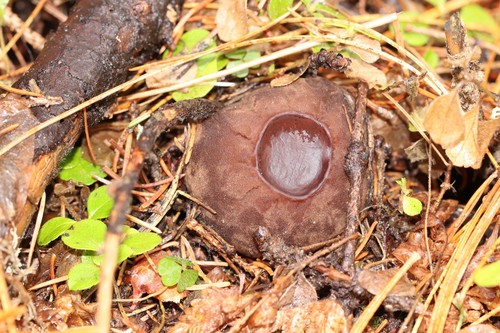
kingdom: Fungi
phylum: Ascomycota
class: Pezizomycetes
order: Pezizales
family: Sarcosomataceae
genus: Sarcosoma
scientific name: Sarcosoma globosum
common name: Charred-pancake cup
